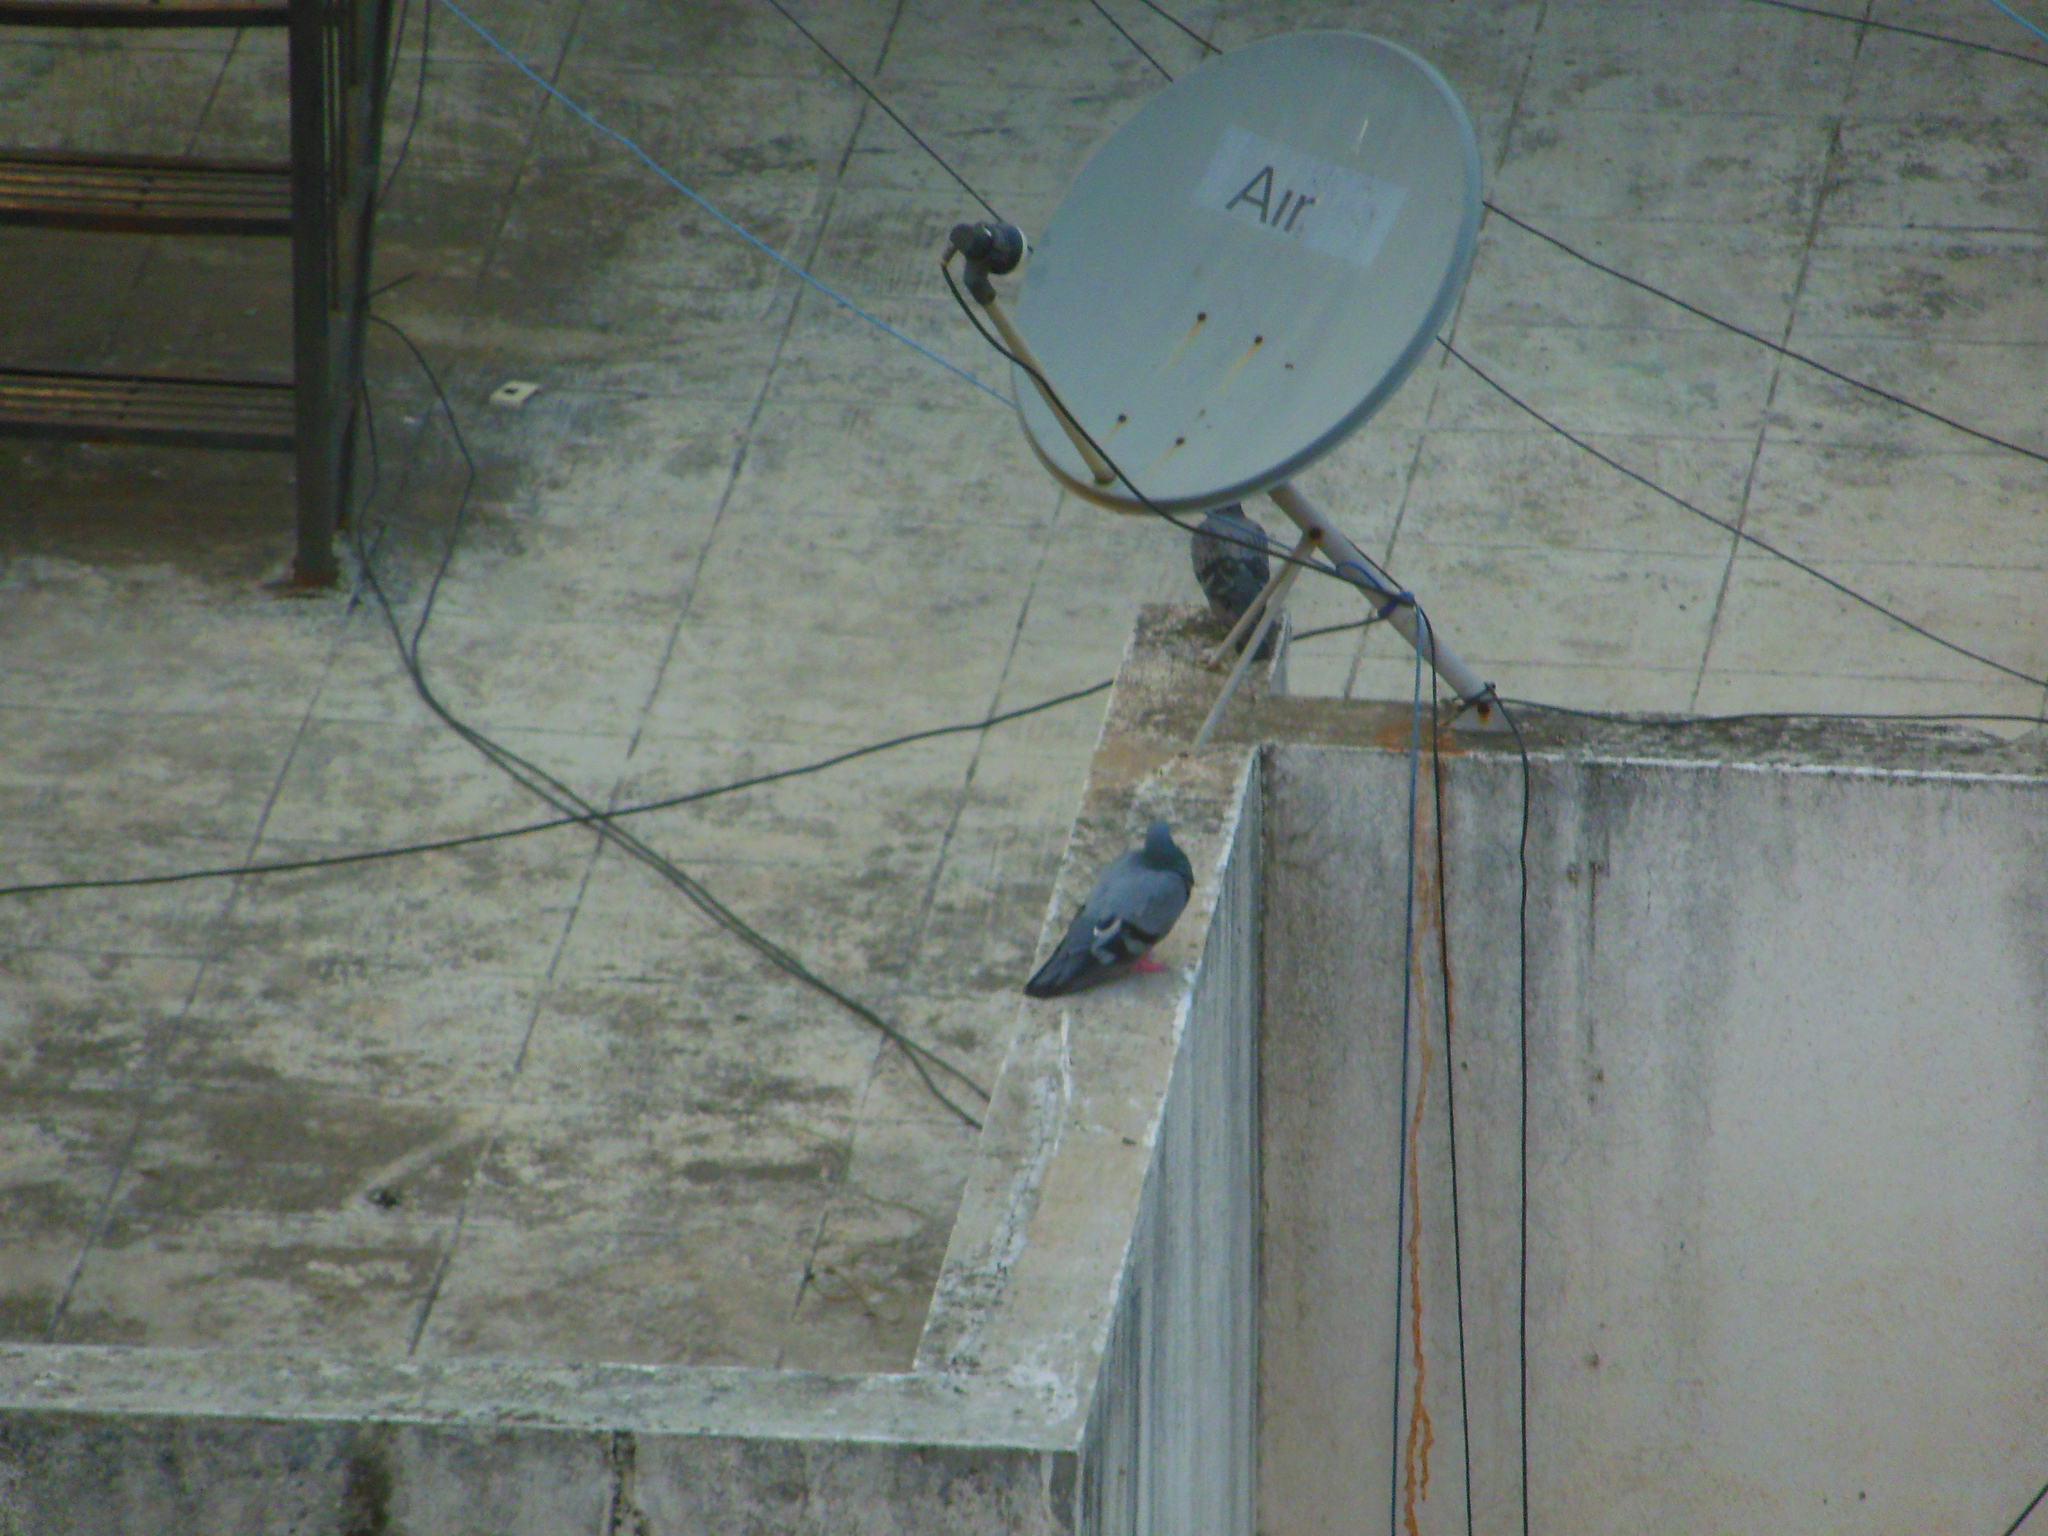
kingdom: Animalia
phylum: Chordata
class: Aves
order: Columbiformes
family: Columbidae
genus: Columba
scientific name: Columba livia
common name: Rock pigeon
